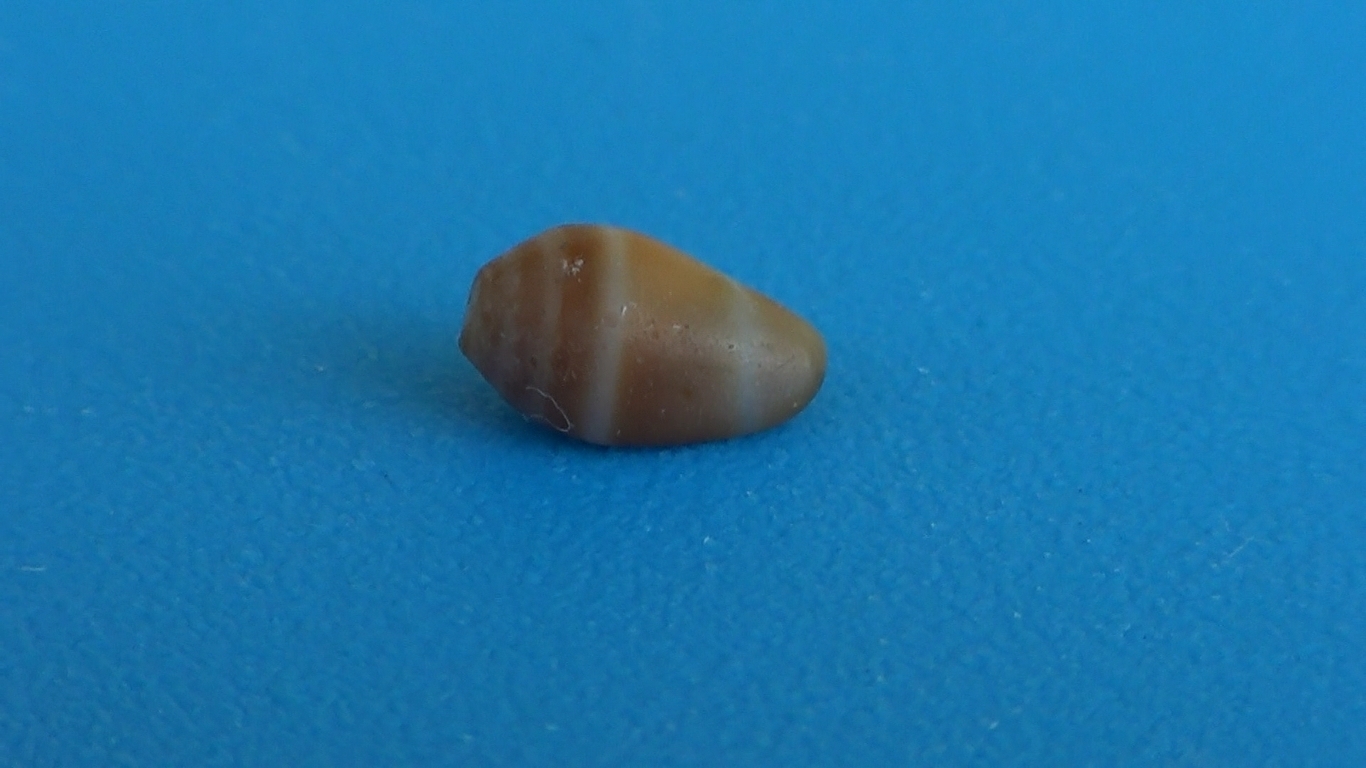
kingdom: Animalia
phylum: Mollusca
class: Gastropoda
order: Neogastropoda
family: Conidae
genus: Conus
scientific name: Conus ventricosus
